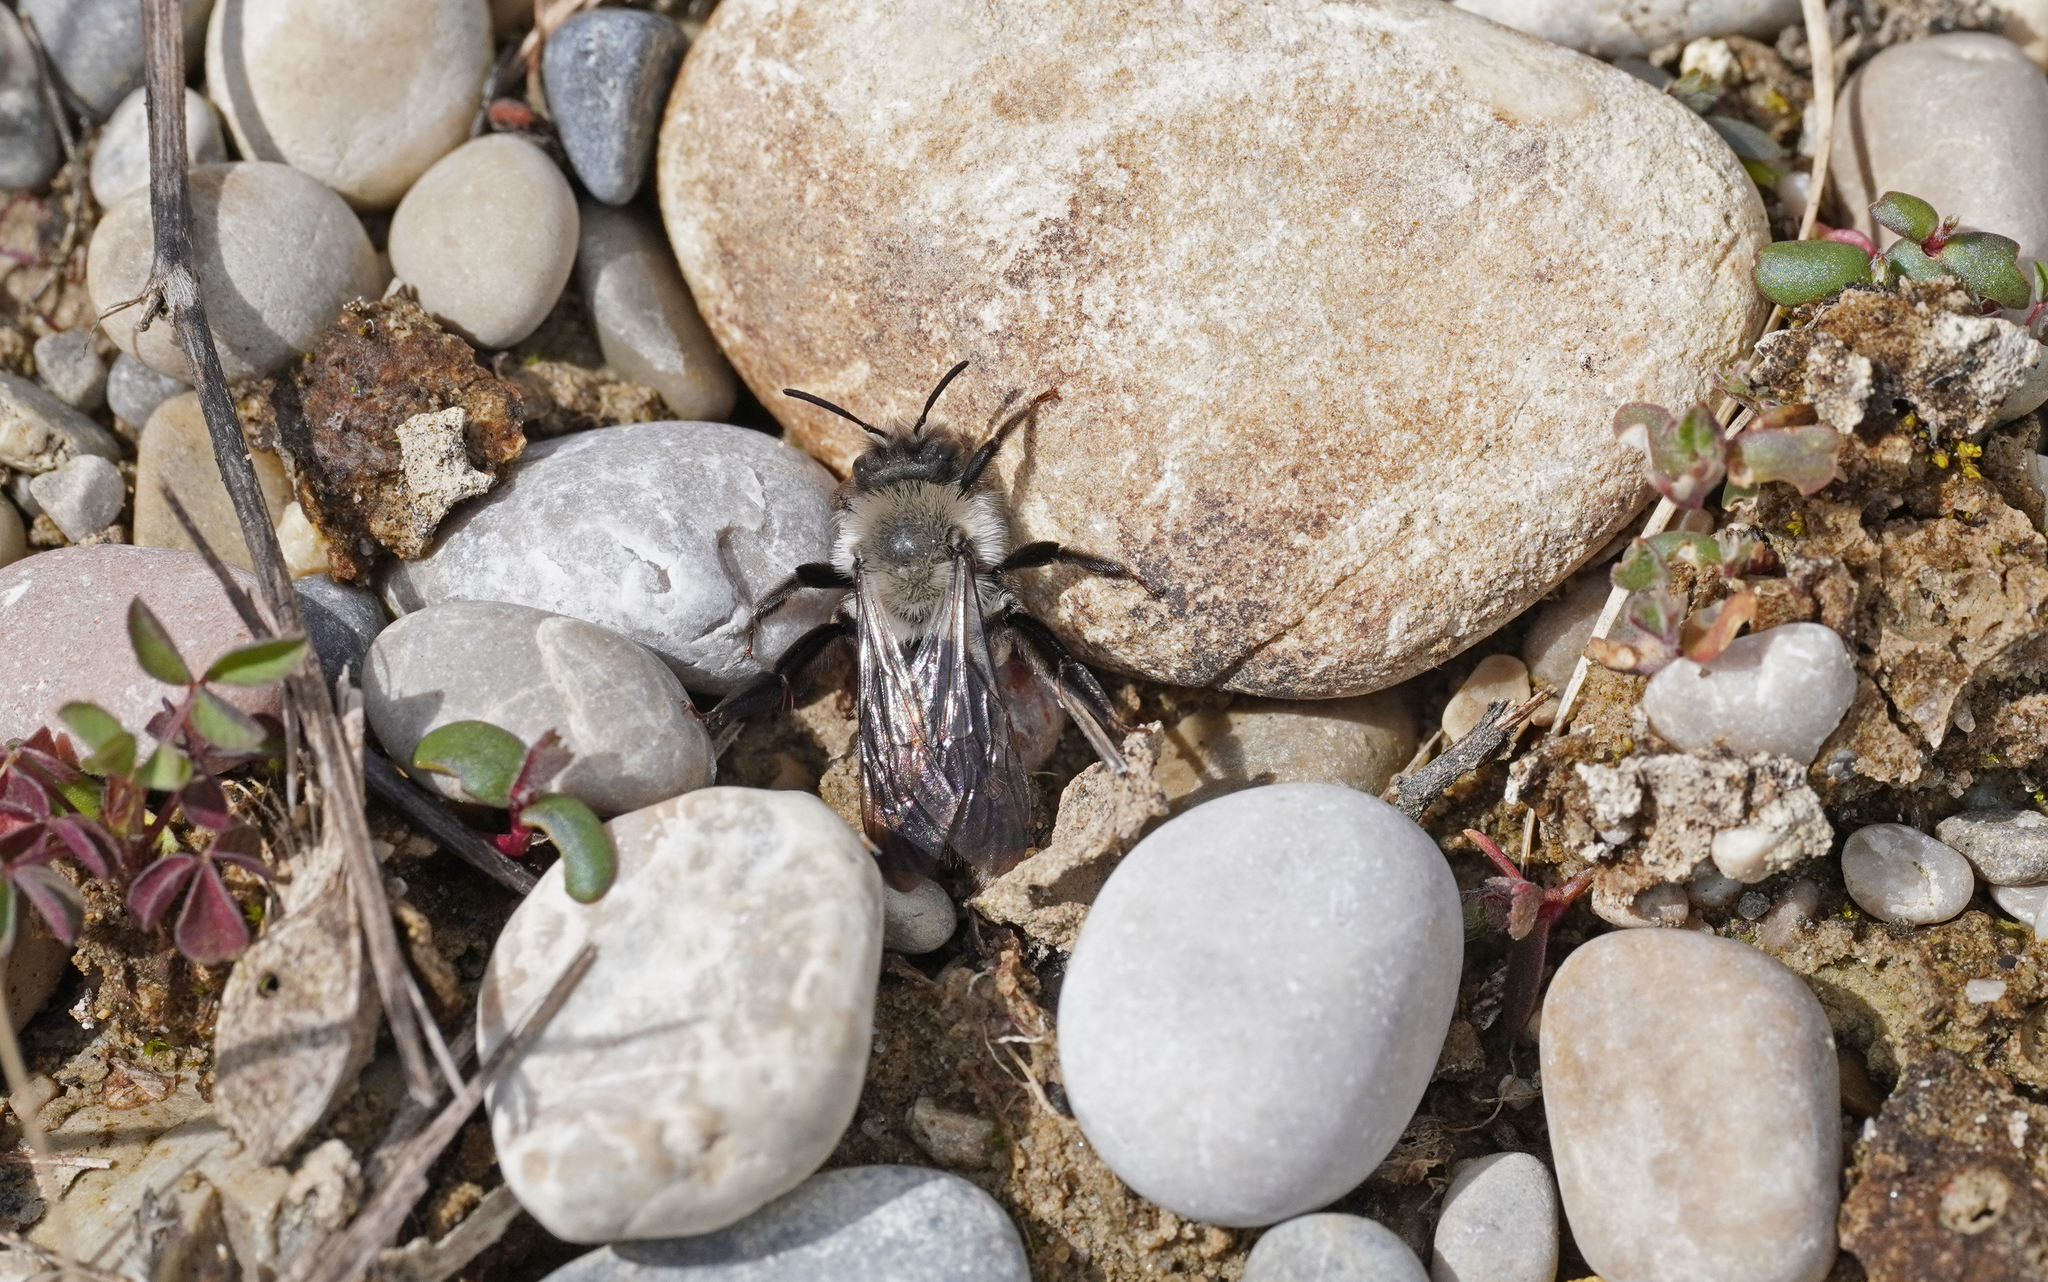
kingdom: Animalia
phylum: Arthropoda
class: Insecta
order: Hymenoptera
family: Andrenidae
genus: Andrena
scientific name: Andrena vaga
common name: Grey-backed mining bee
